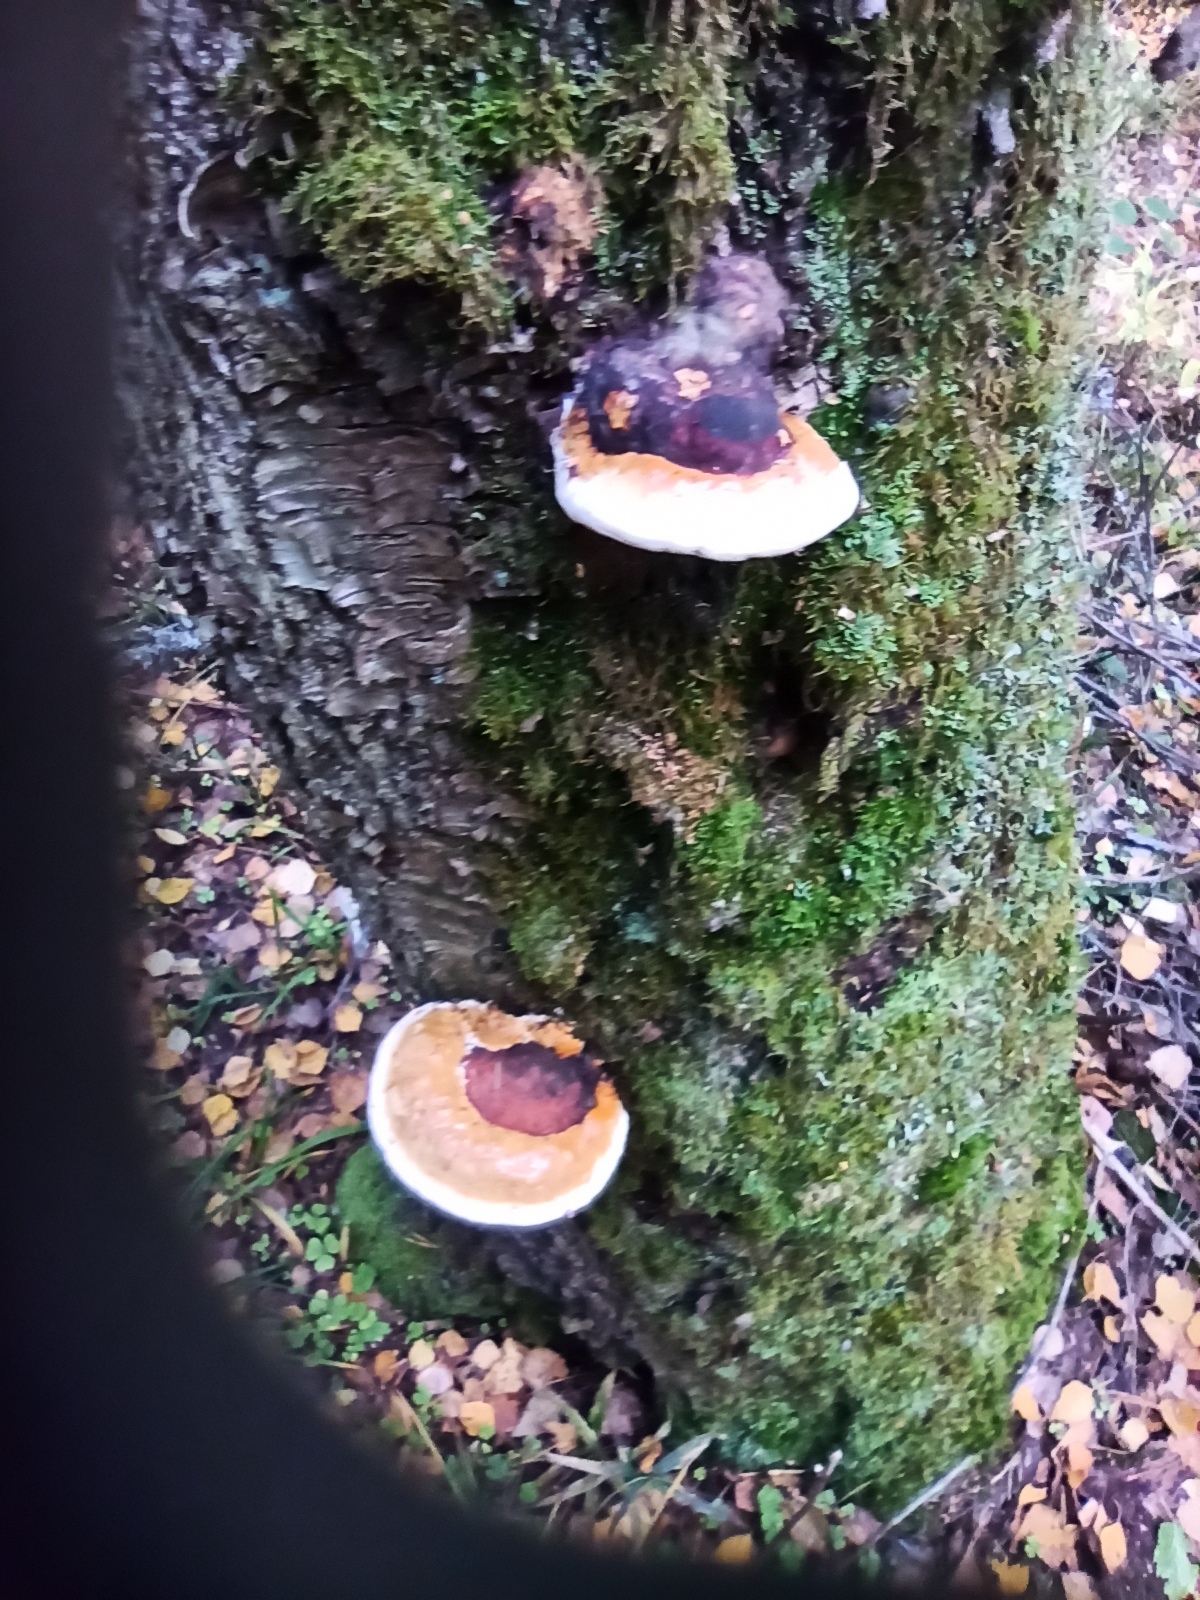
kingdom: Fungi
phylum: Basidiomycota
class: Agaricomycetes
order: Polyporales
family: Fomitopsidaceae
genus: Fomitopsis
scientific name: Fomitopsis pinicola
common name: Red-belted bracket
